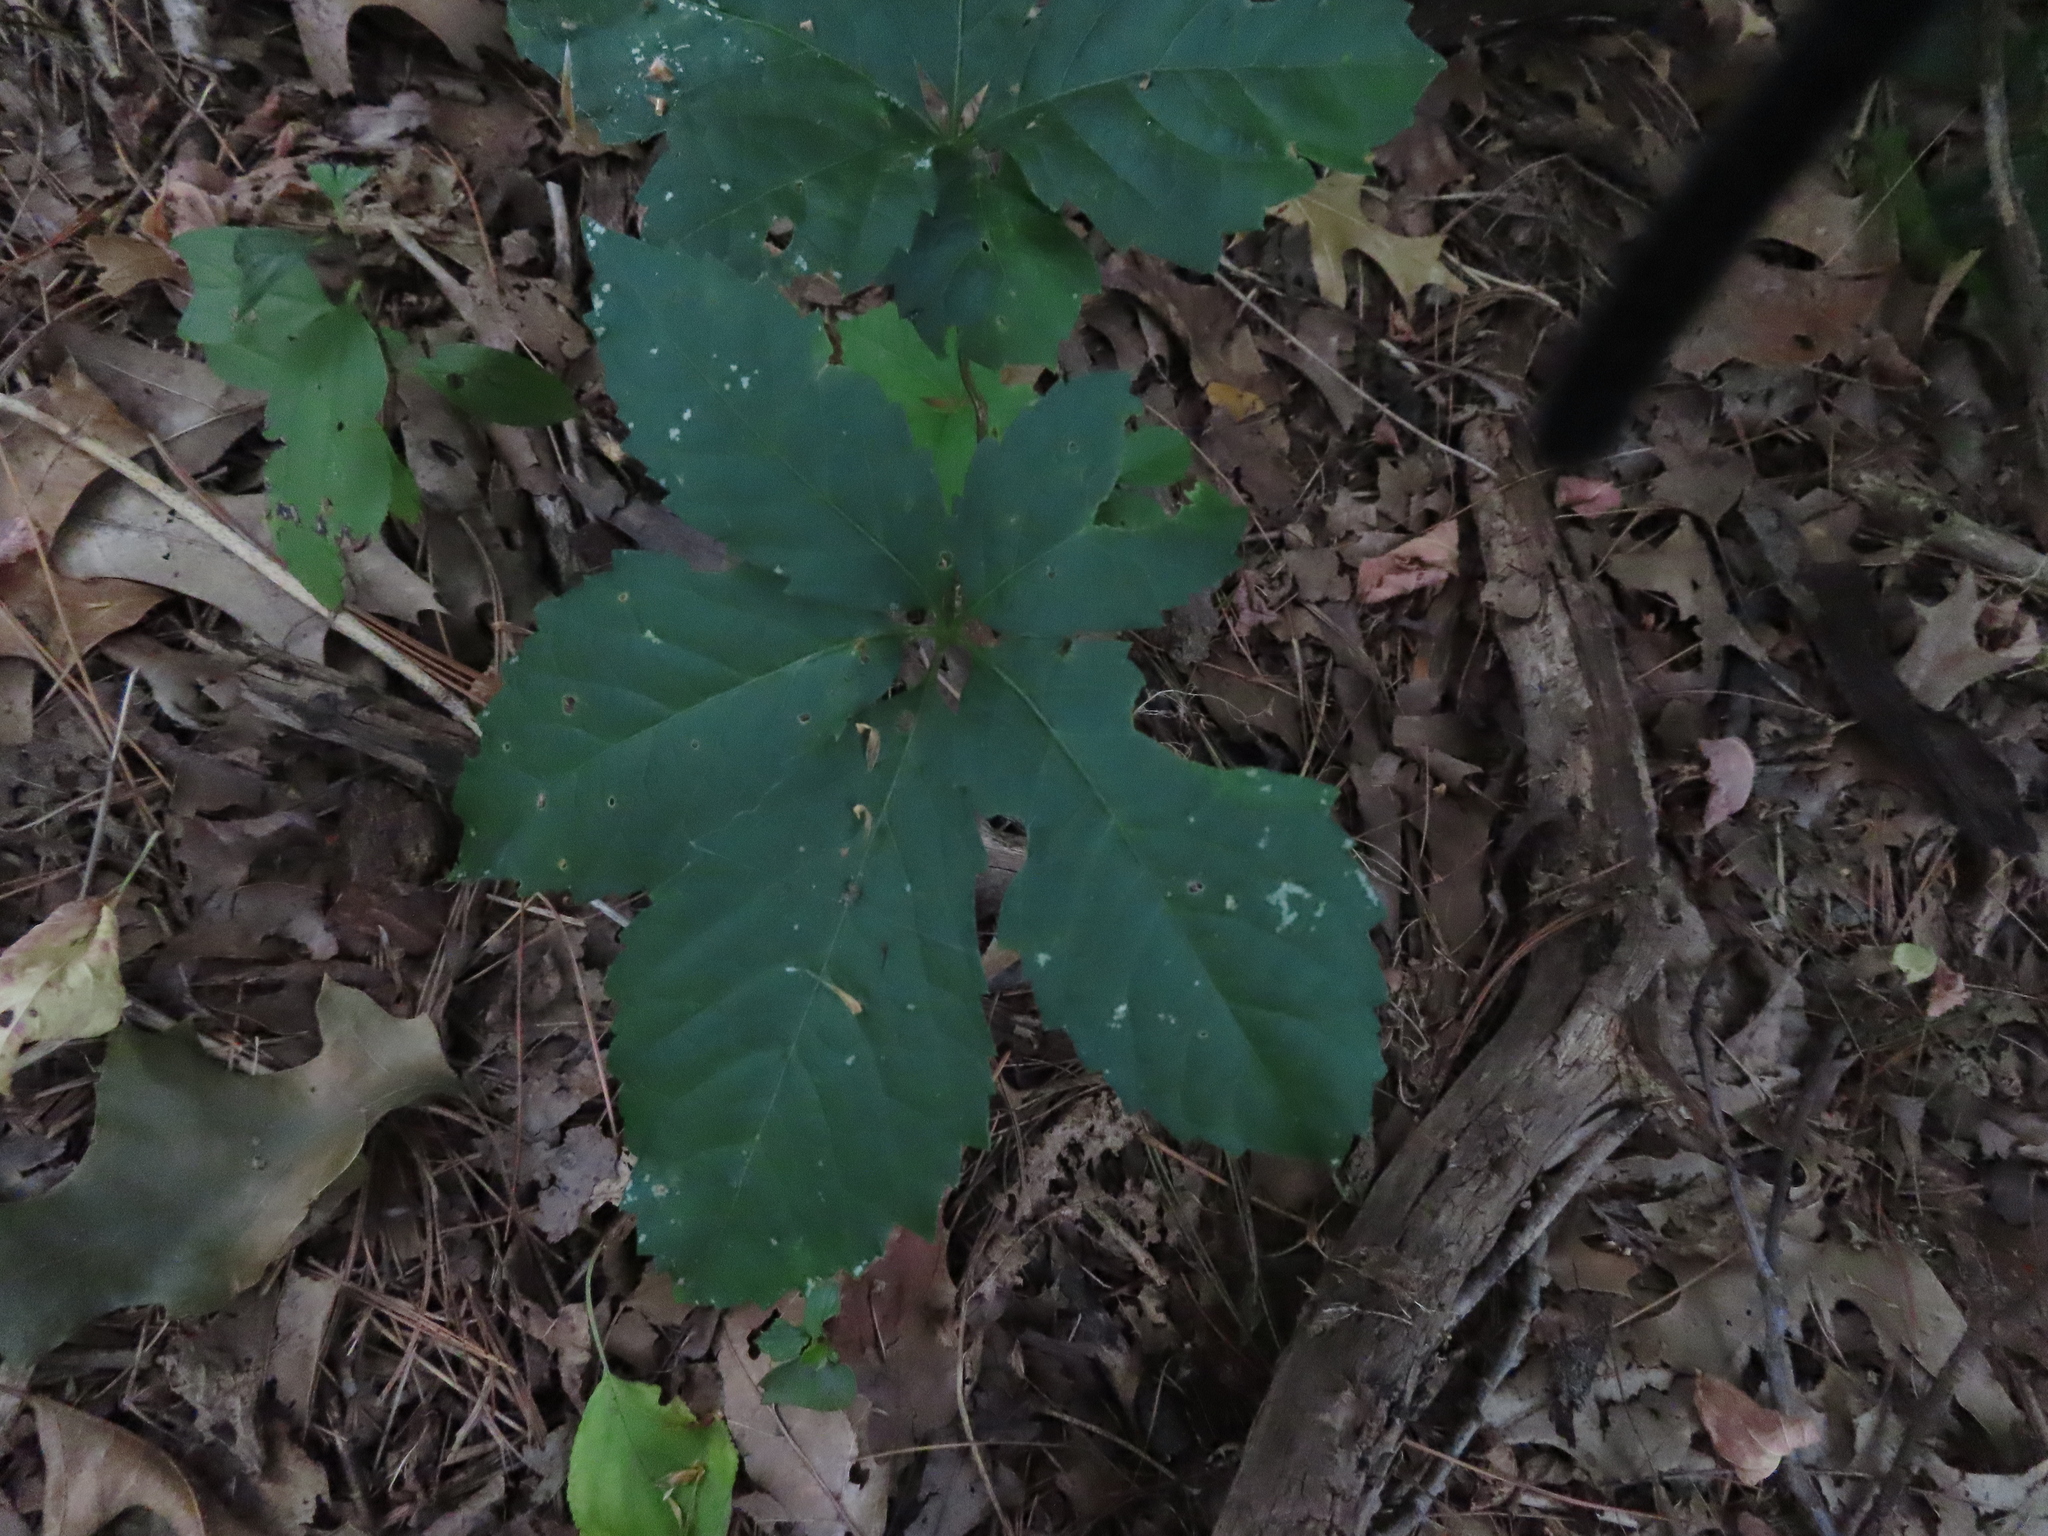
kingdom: Plantae
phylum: Tracheophyta
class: Magnoliopsida
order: Vitales
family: Vitaceae
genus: Parthenocissus
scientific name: Parthenocissus inserta
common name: False virginia-creeper
